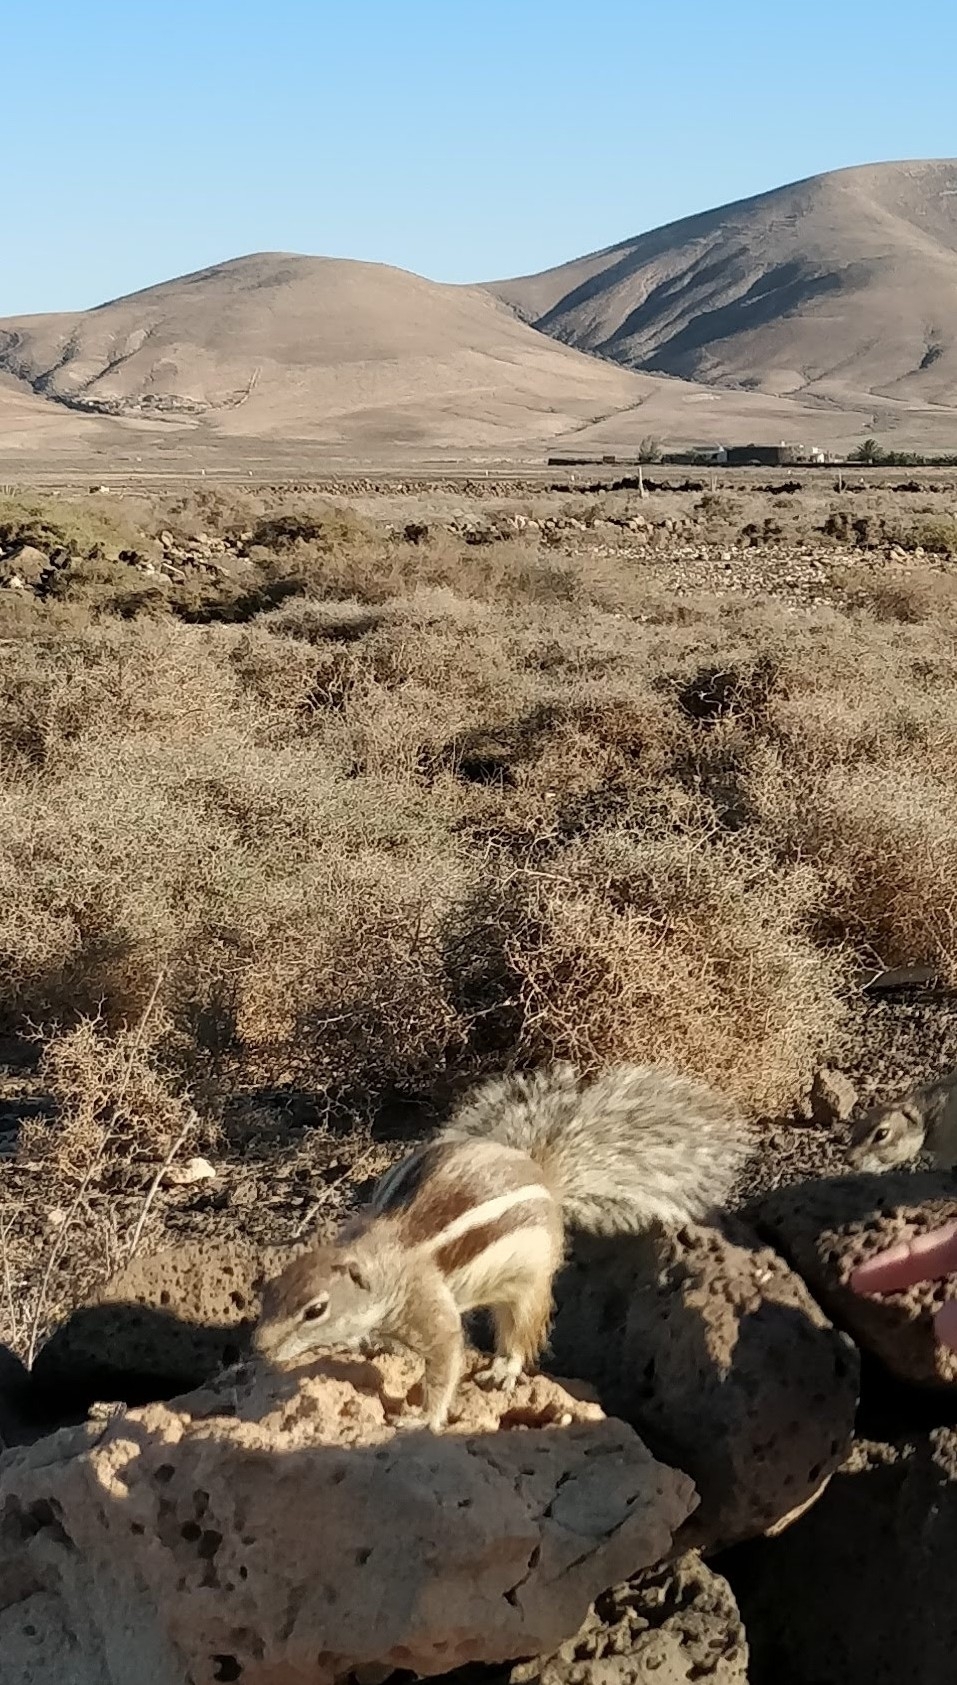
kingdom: Animalia
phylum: Chordata
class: Mammalia
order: Rodentia
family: Sciuridae
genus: Atlantoxerus
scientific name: Atlantoxerus getulus
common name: Barbary ground squirrel
